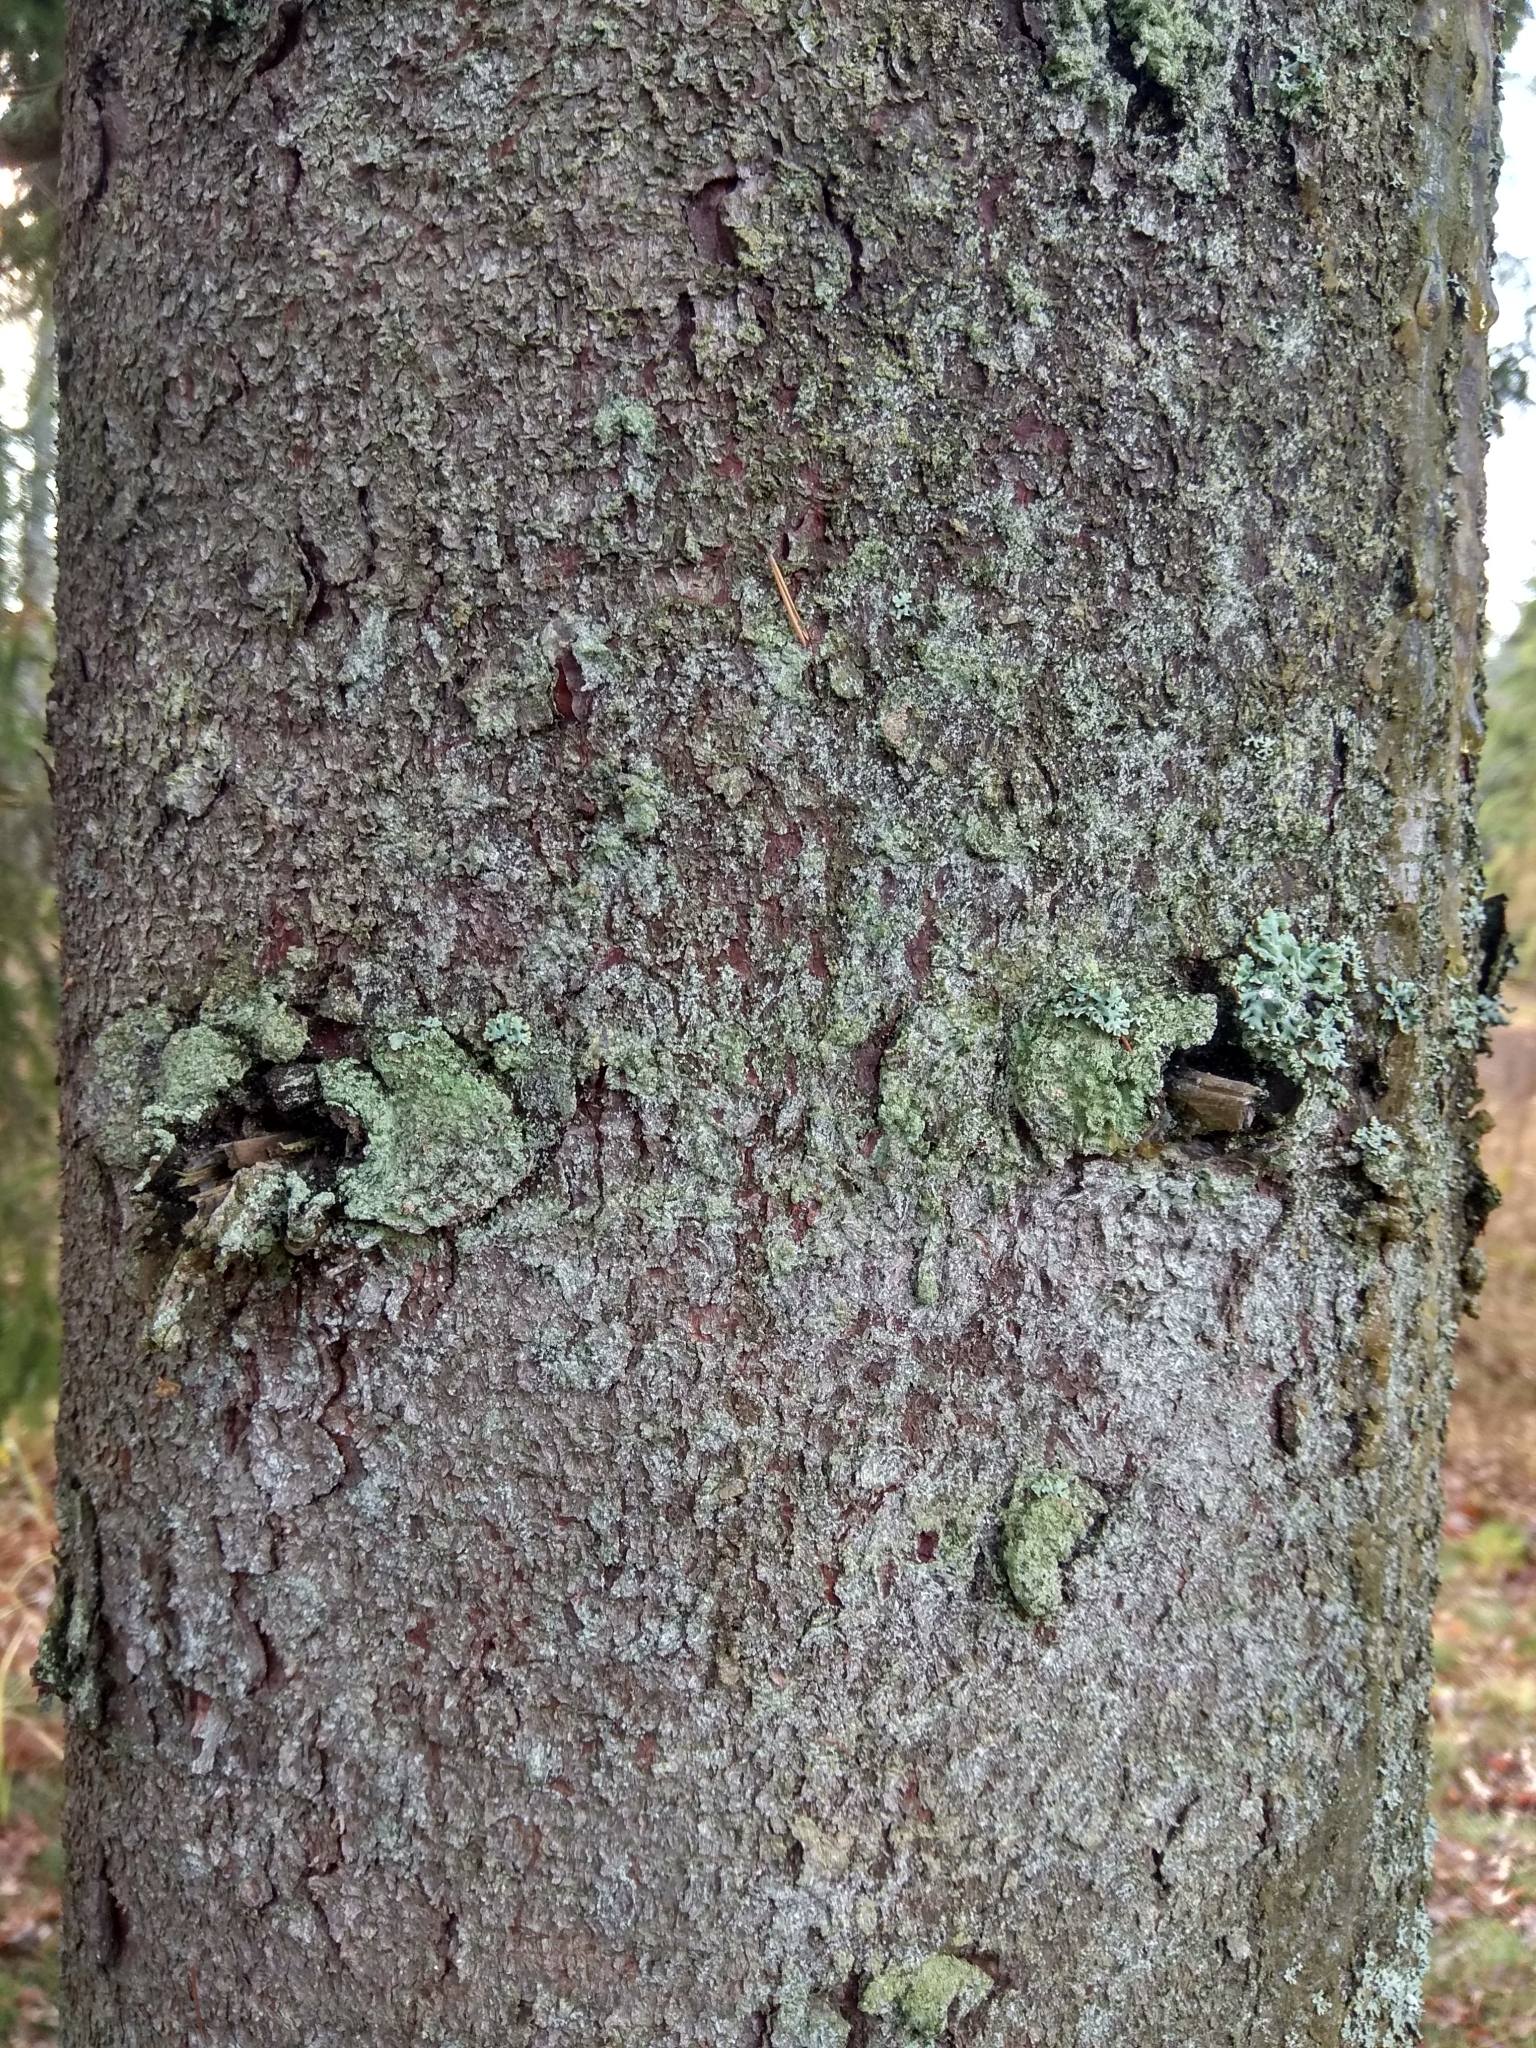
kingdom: Plantae
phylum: Tracheophyta
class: Pinopsida
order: Pinales
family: Pinaceae
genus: Picea
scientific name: Picea abies
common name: Norway spruce
